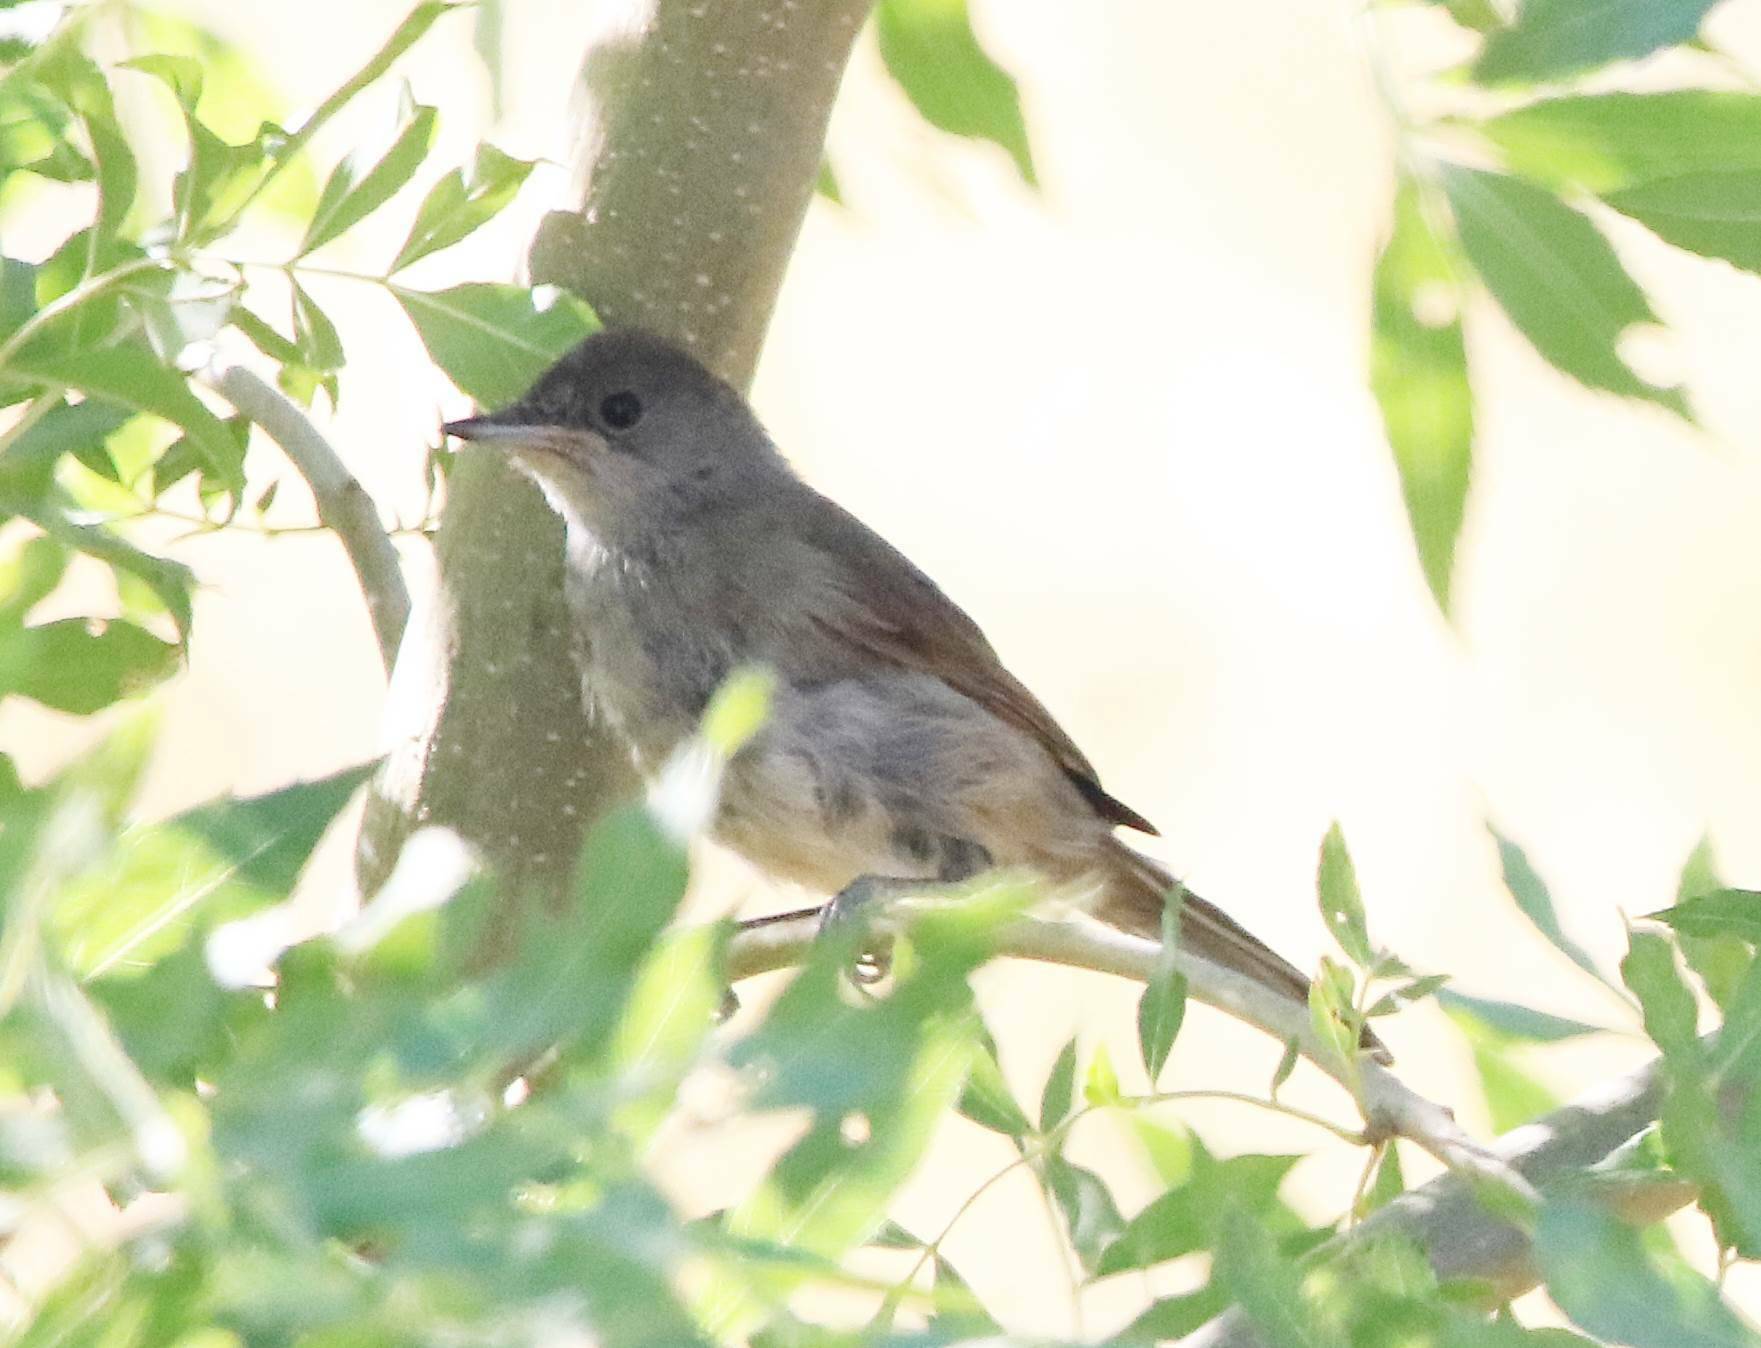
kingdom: Animalia
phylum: Chordata
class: Aves
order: Passeriformes
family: Sylviidae
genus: Sylvia
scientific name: Sylvia atricapilla
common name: Eurasian blackcap
